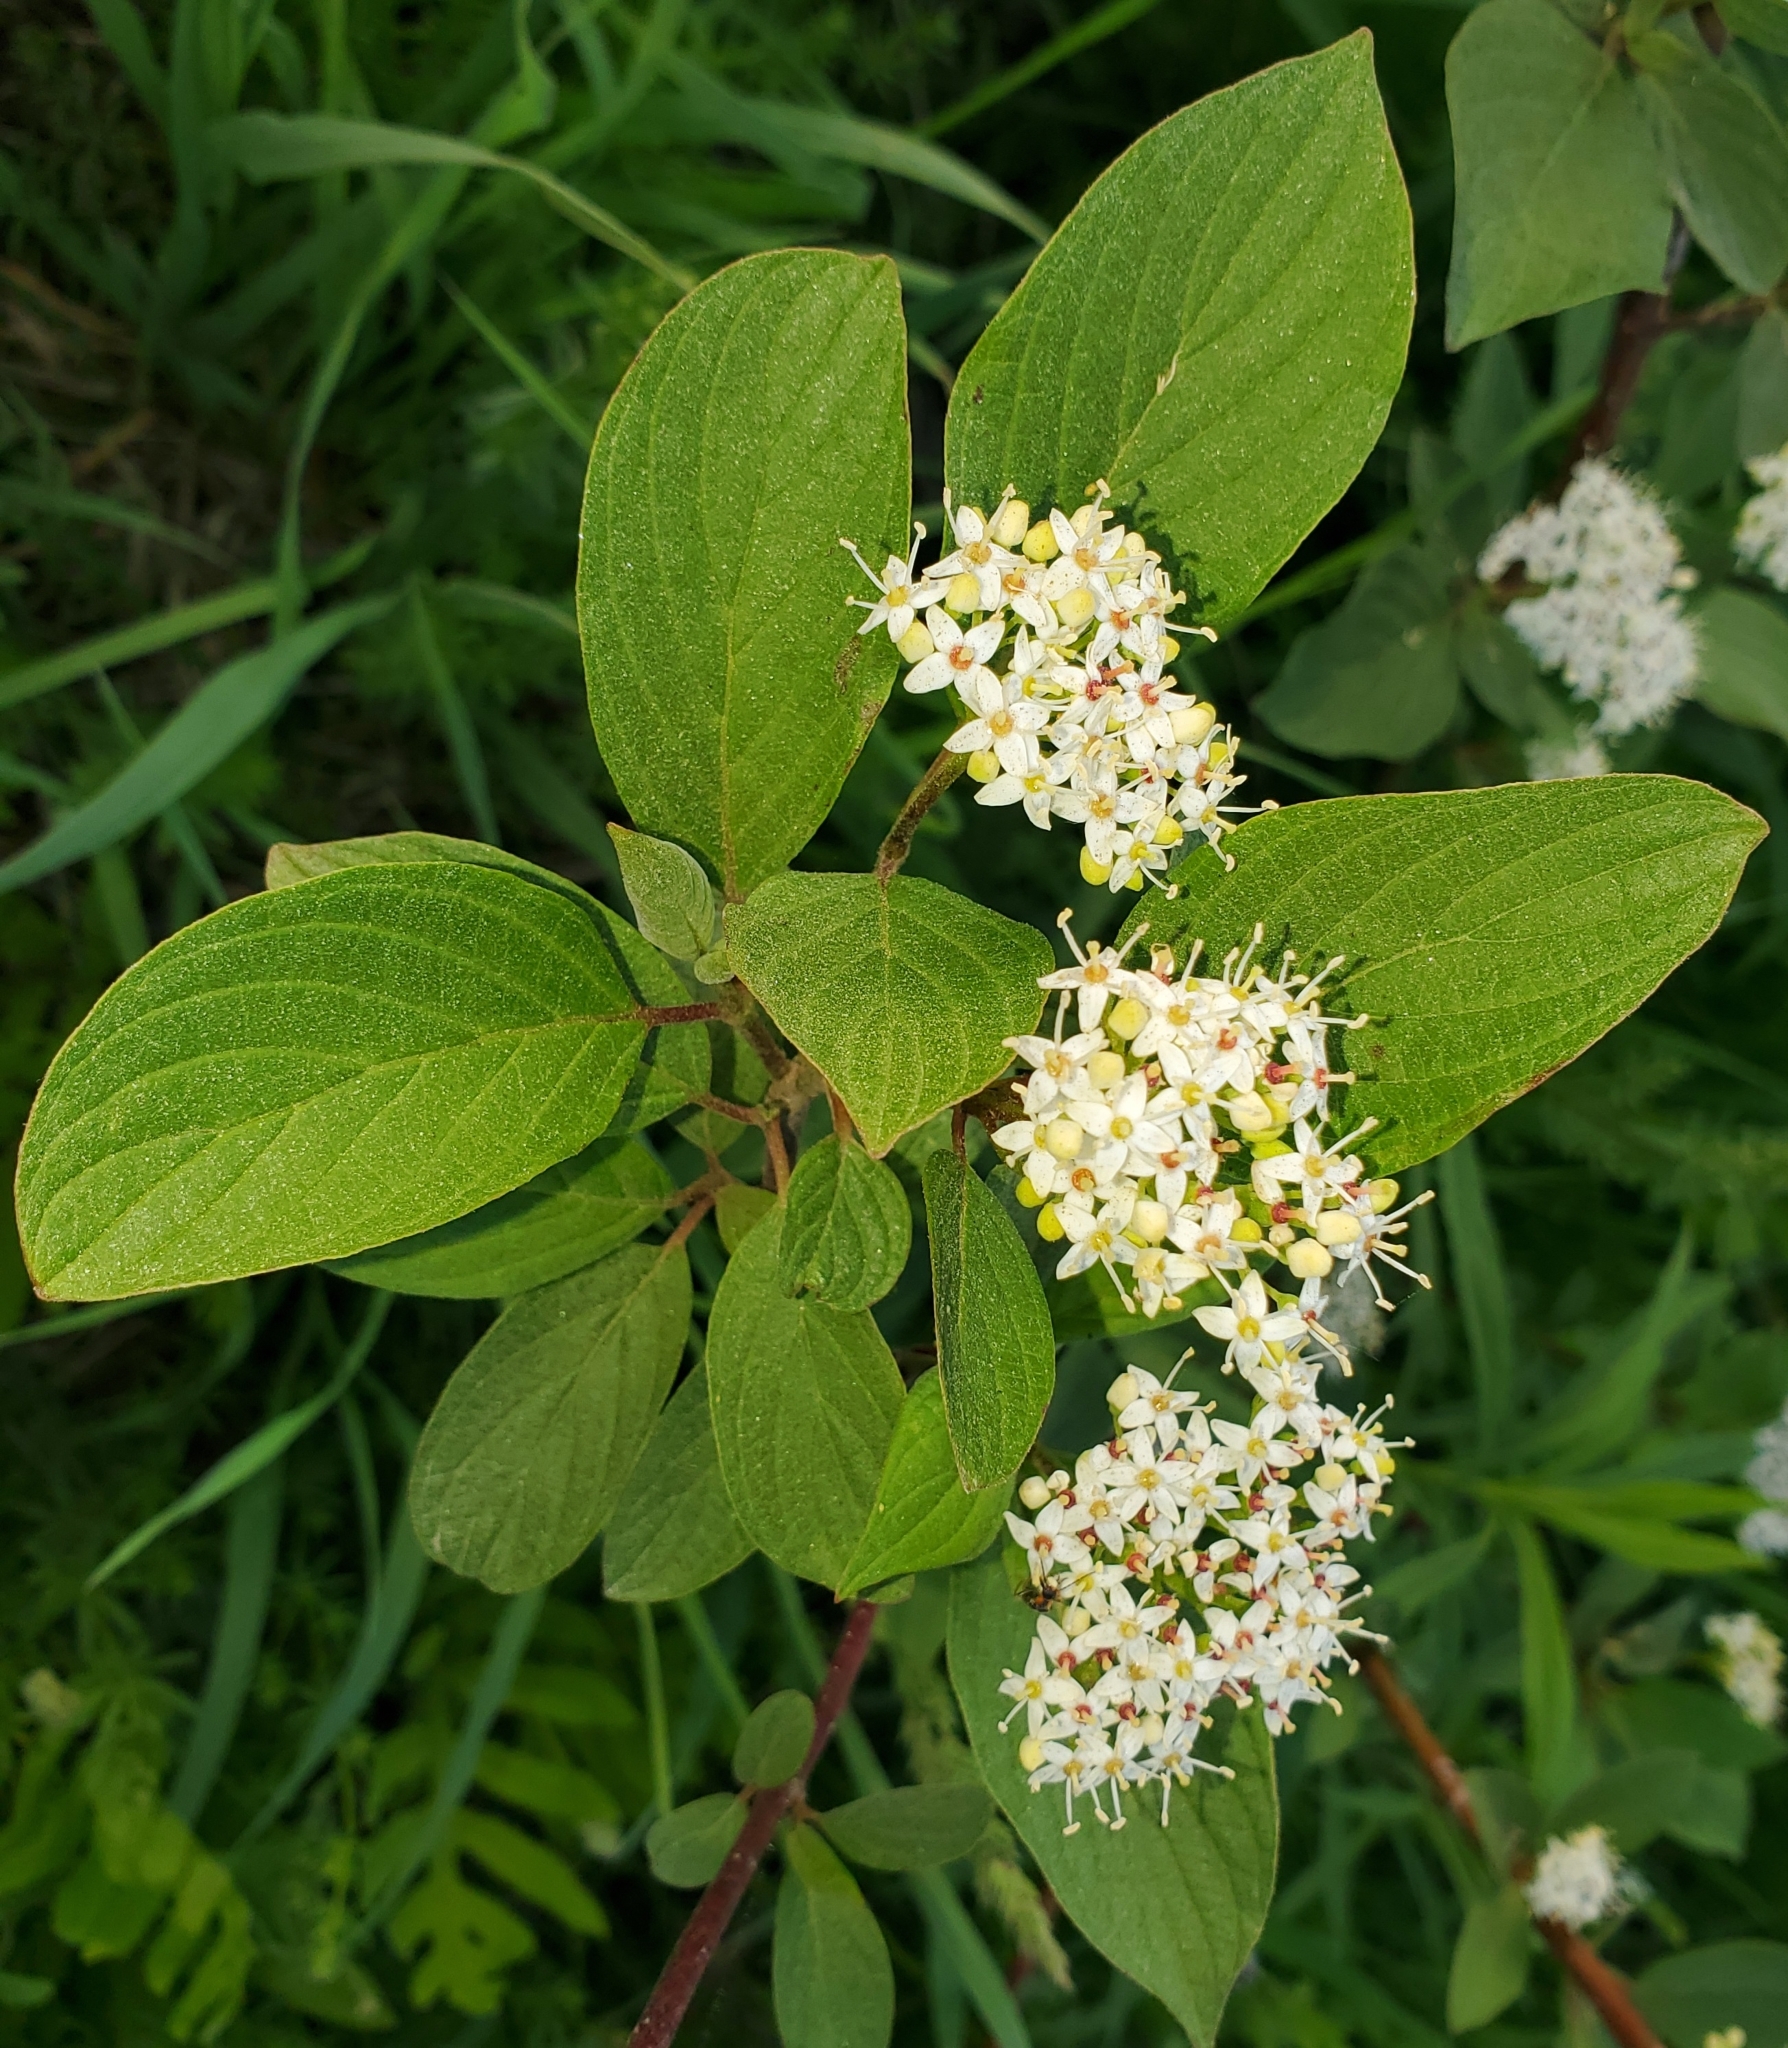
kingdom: Plantae
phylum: Tracheophyta
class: Magnoliopsida
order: Cornales
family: Cornaceae
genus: Cornus
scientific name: Cornus sericea
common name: Red-osier dogwood
